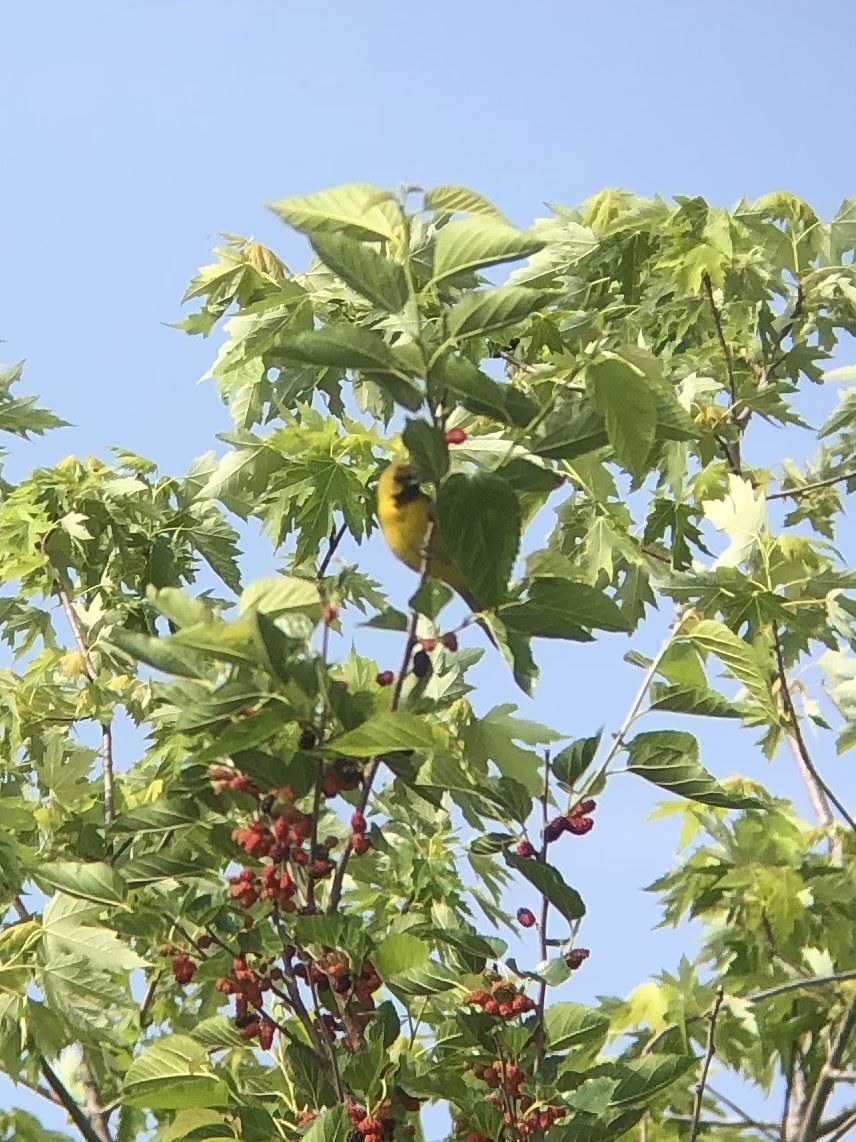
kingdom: Animalia
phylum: Chordata
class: Aves
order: Passeriformes
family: Icteridae
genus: Icterus
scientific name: Icterus spurius
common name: Orchard oriole
